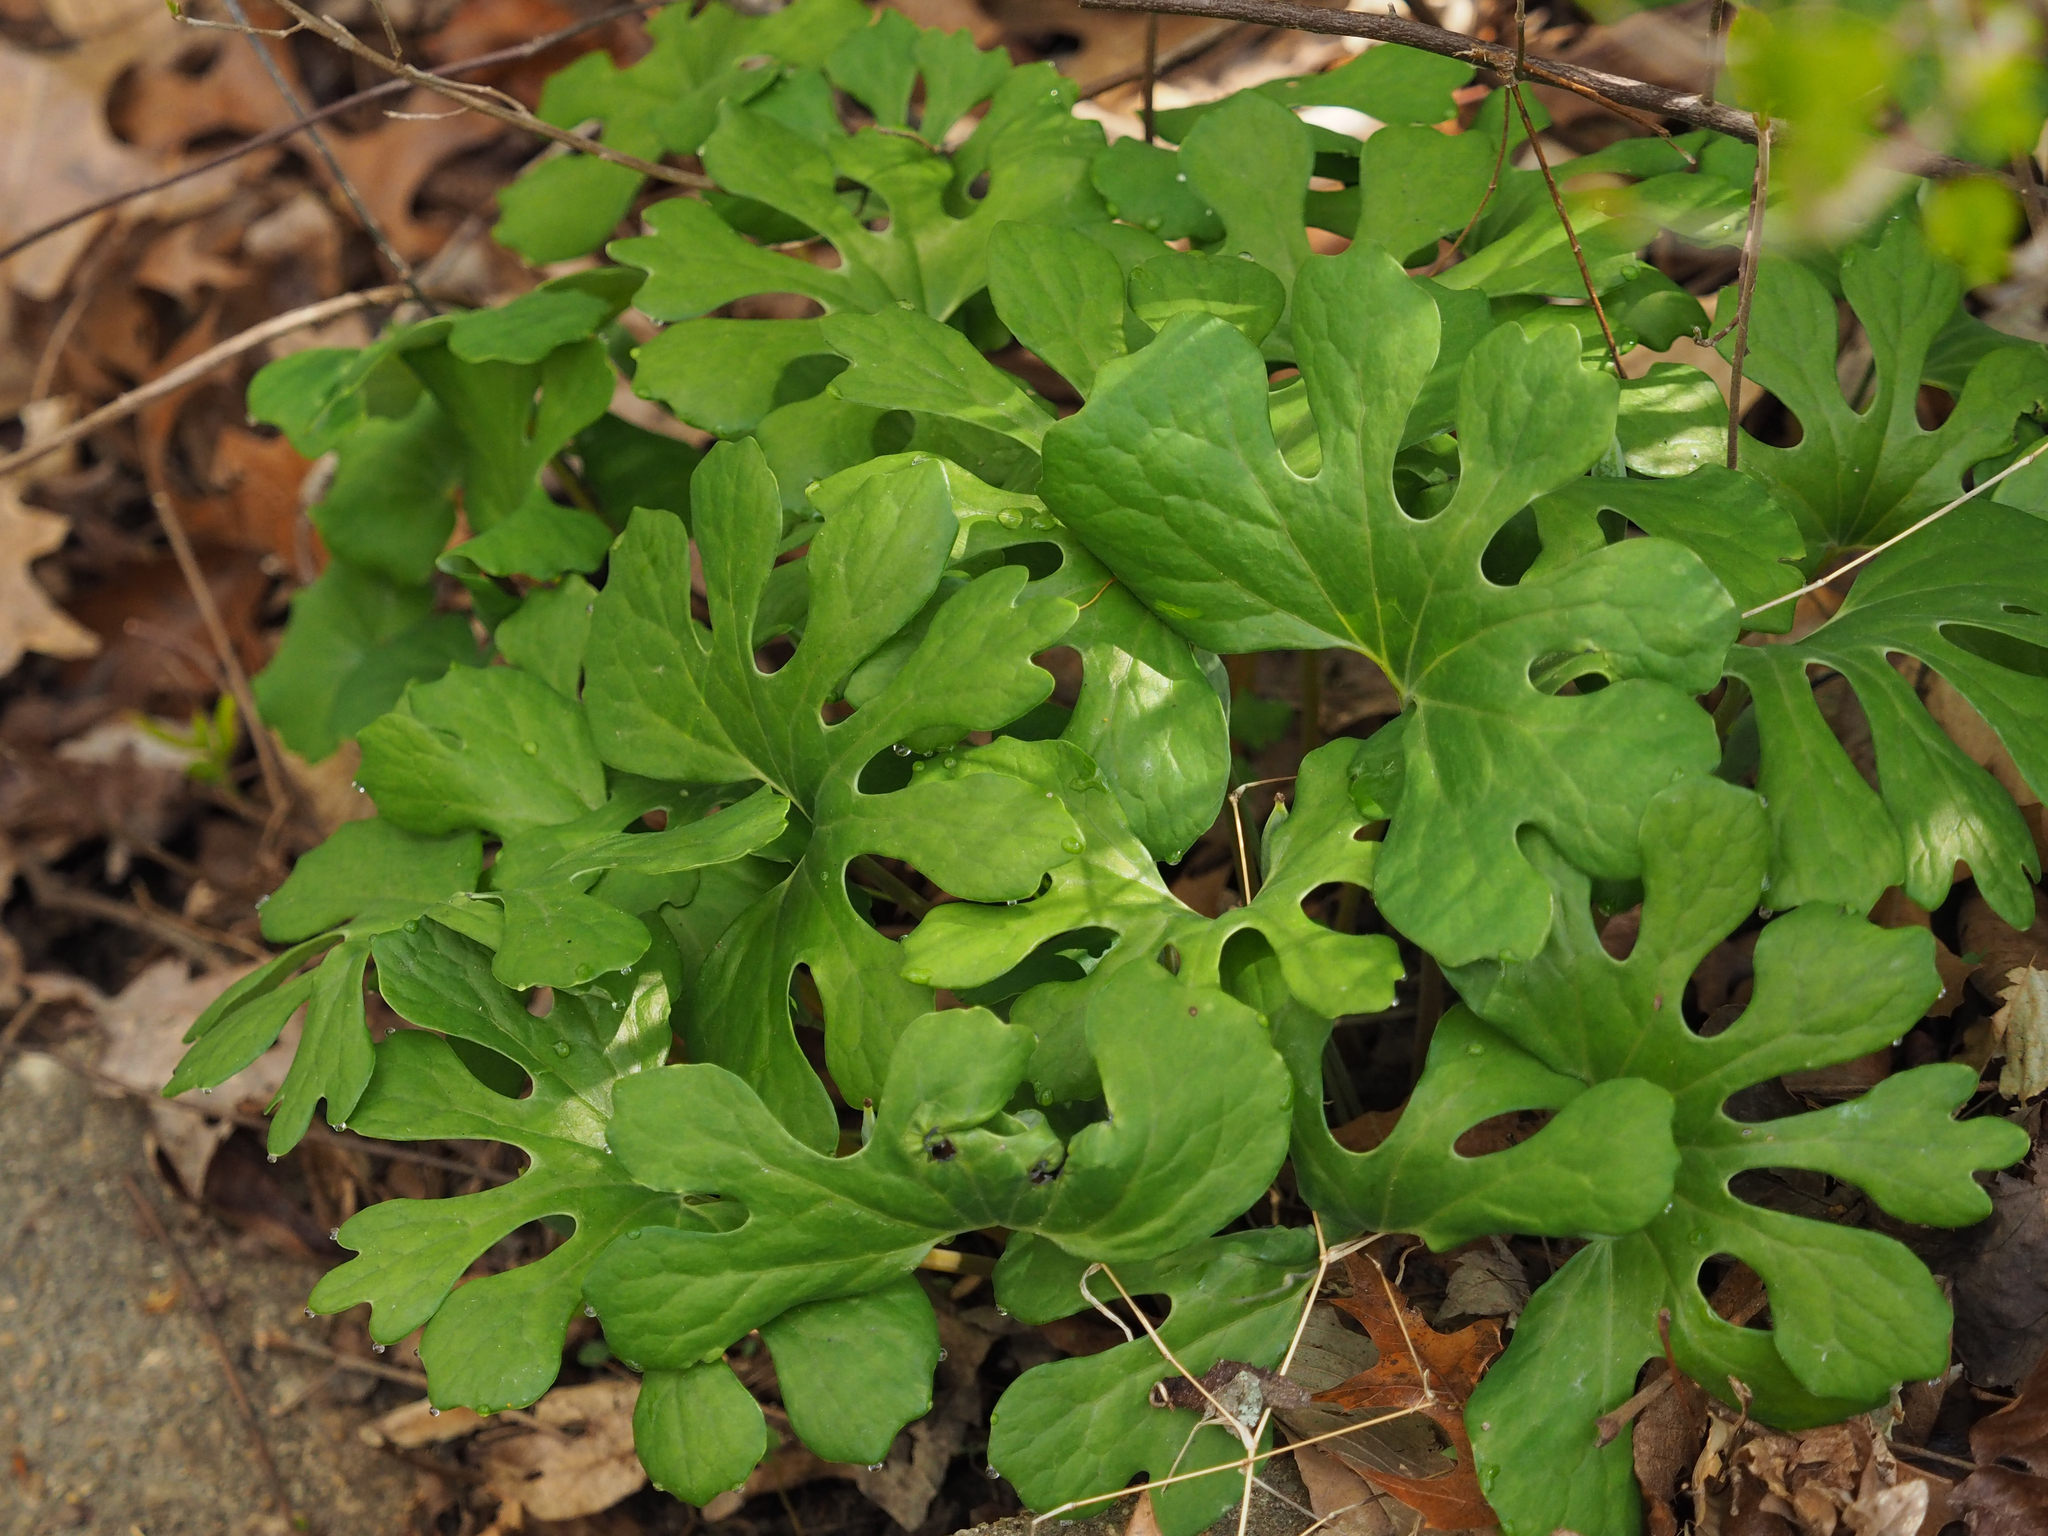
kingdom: Plantae
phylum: Tracheophyta
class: Magnoliopsida
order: Ranunculales
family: Papaveraceae
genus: Sanguinaria
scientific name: Sanguinaria canadensis
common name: Bloodroot
